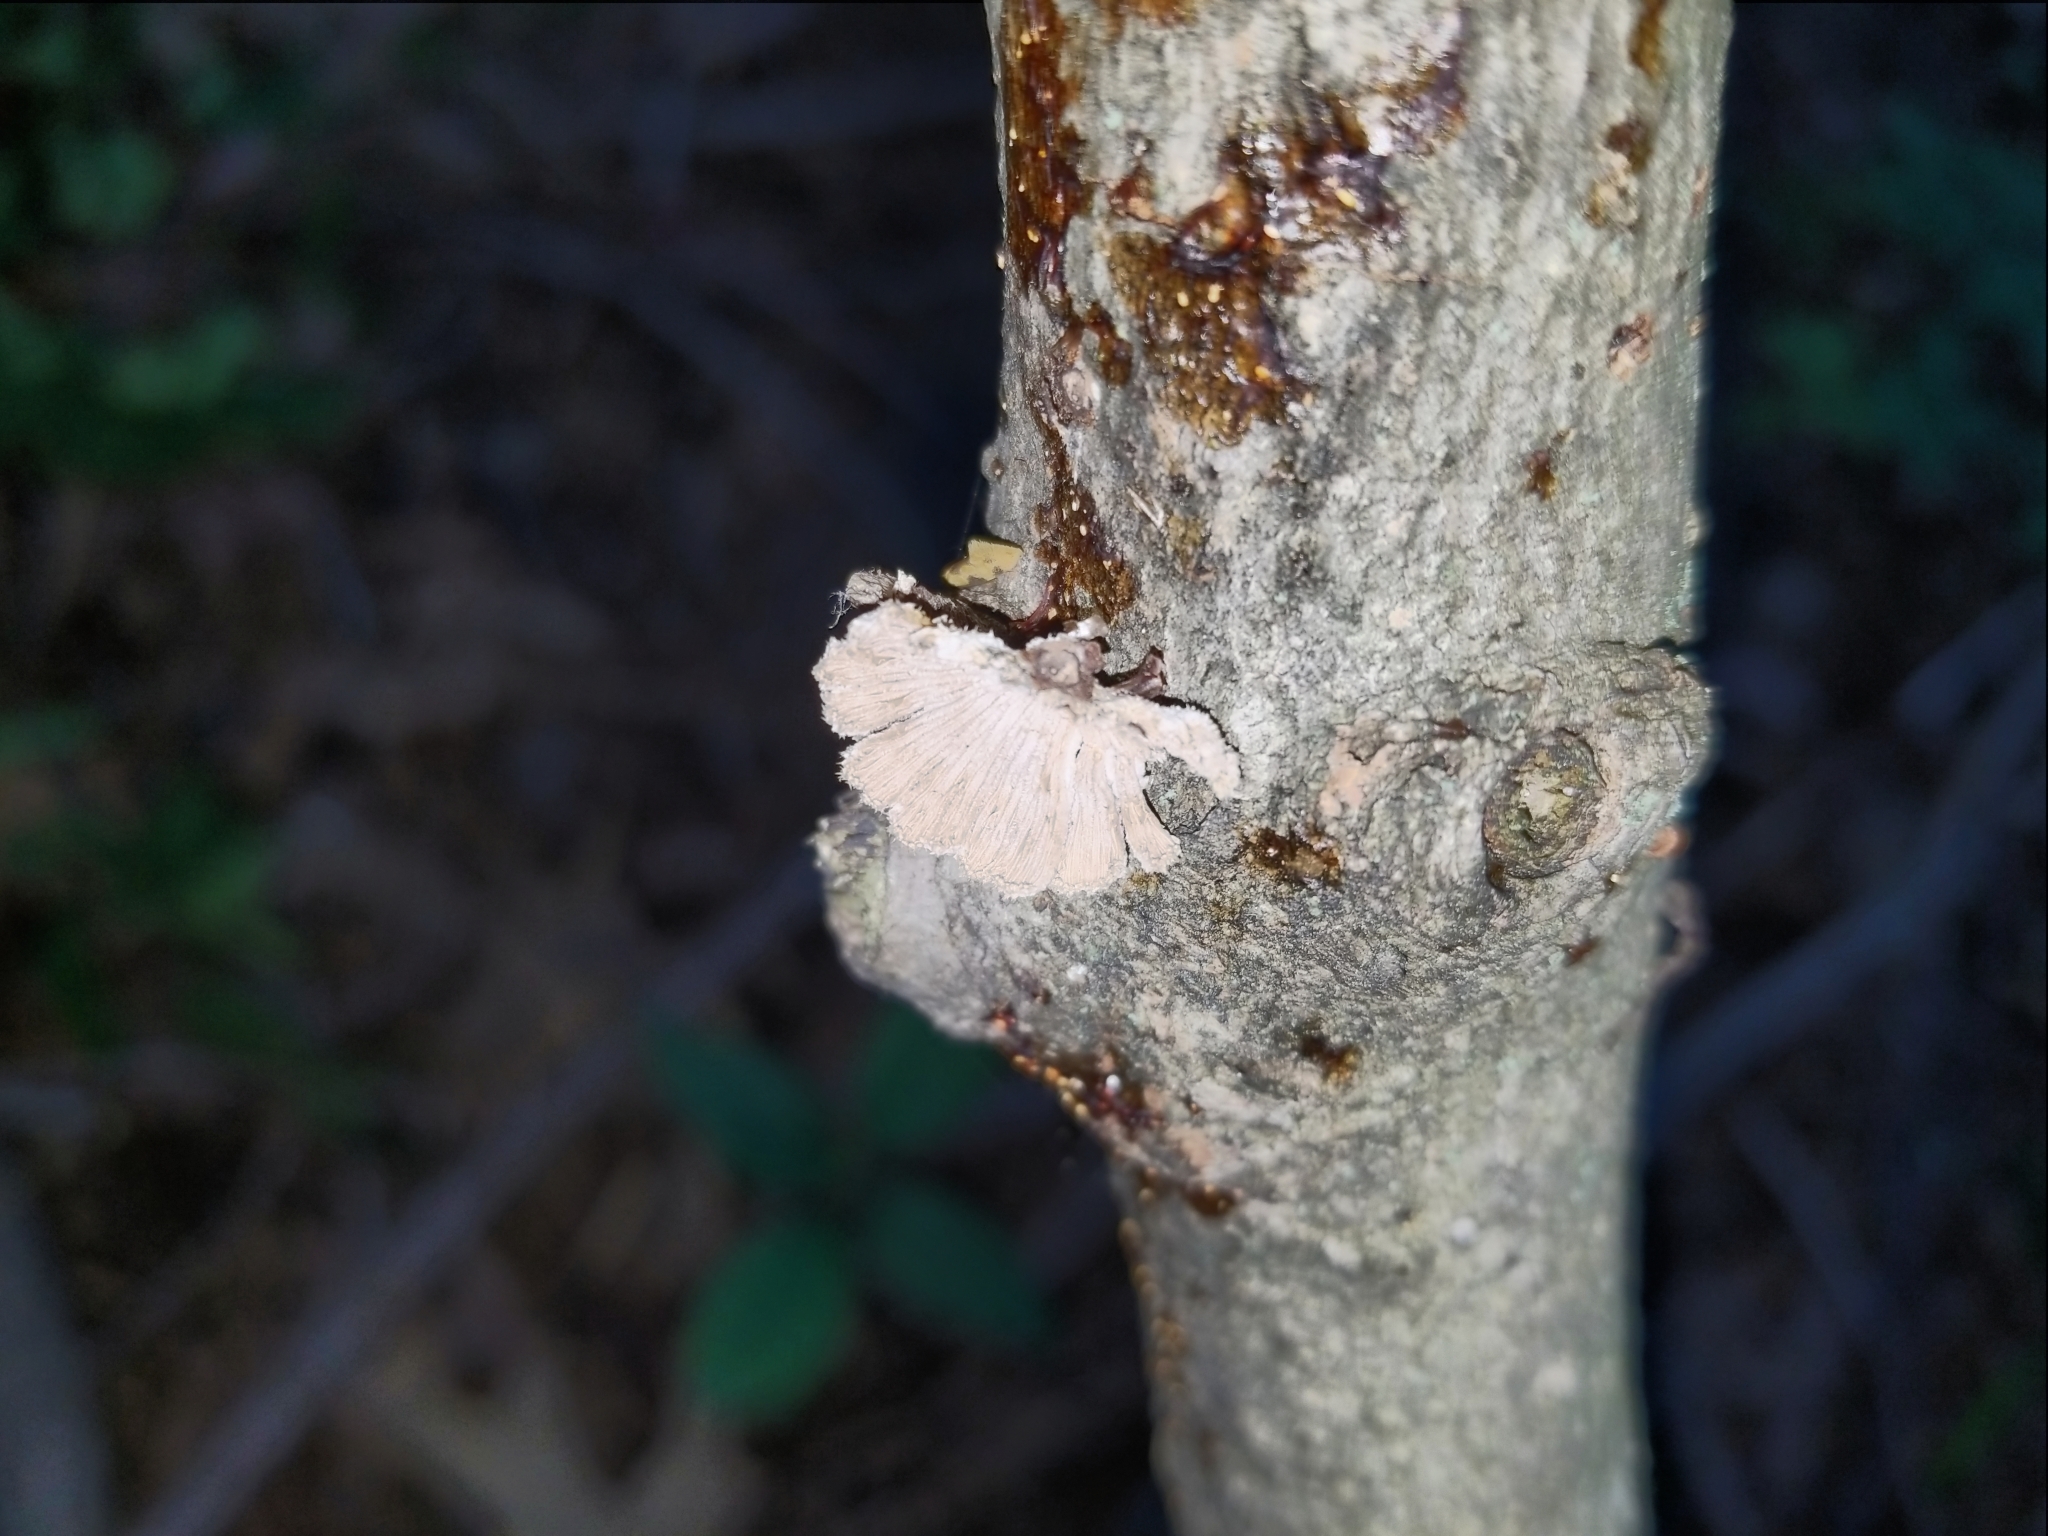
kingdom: Fungi
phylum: Basidiomycota
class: Agaricomycetes
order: Agaricales
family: Schizophyllaceae
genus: Schizophyllum
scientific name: Schizophyllum commune
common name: Common porecrust
